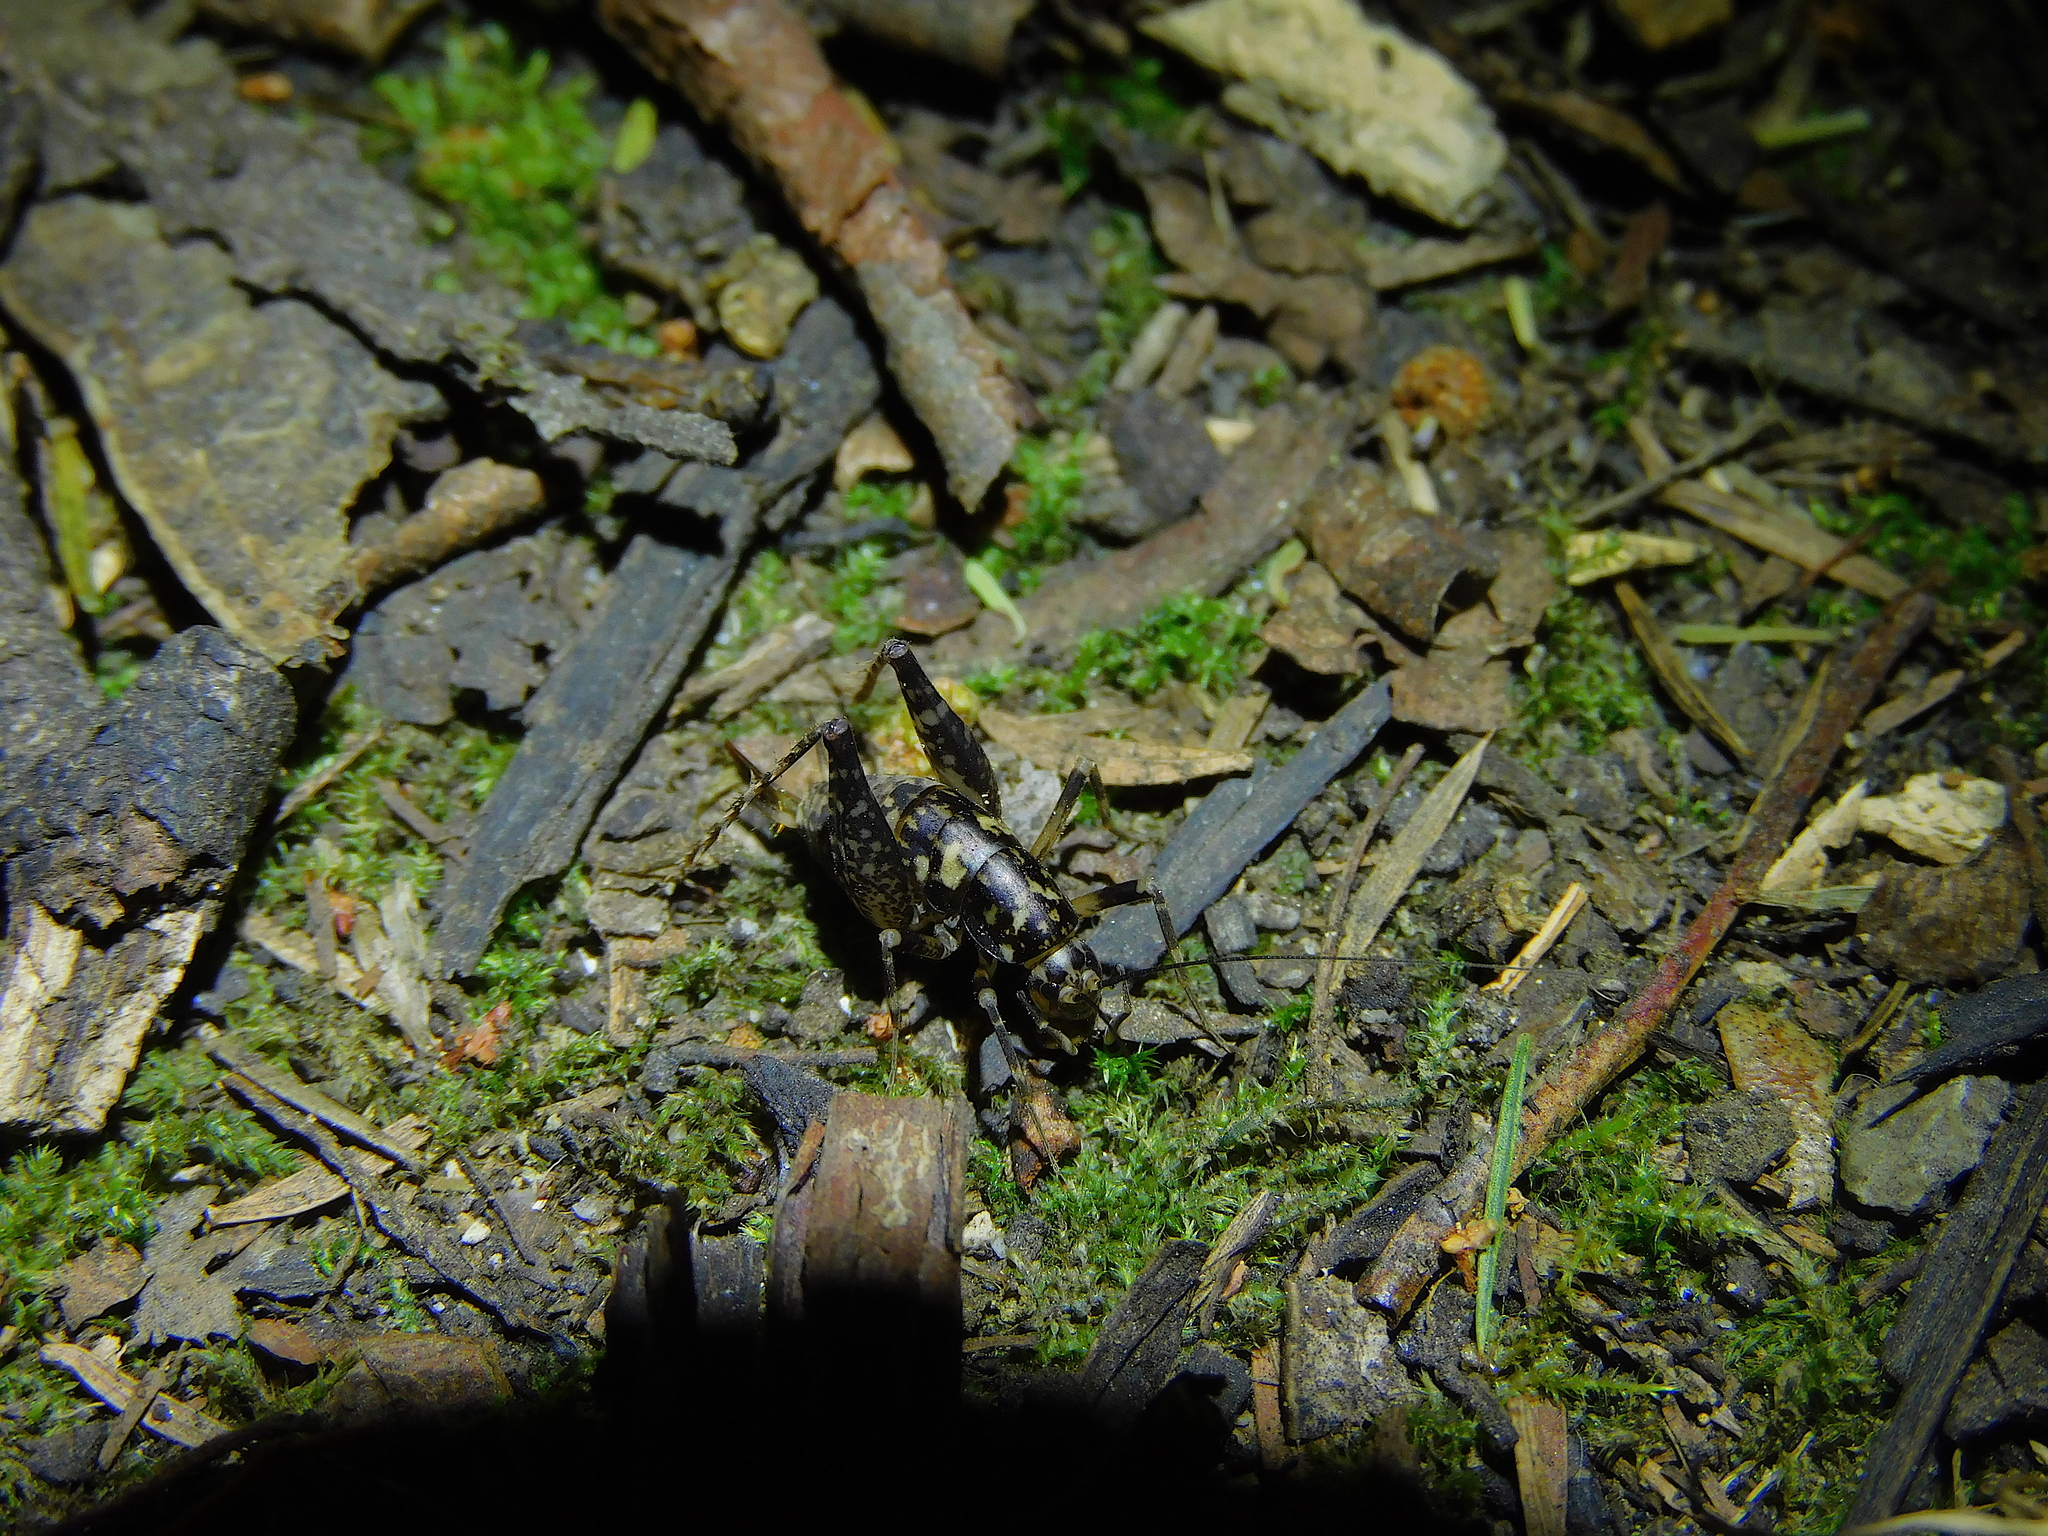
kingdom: Animalia
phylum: Arthropoda
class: Insecta
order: Orthoptera
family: Rhaphidophoridae
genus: Parvotettix
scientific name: Parvotettix domesticus
